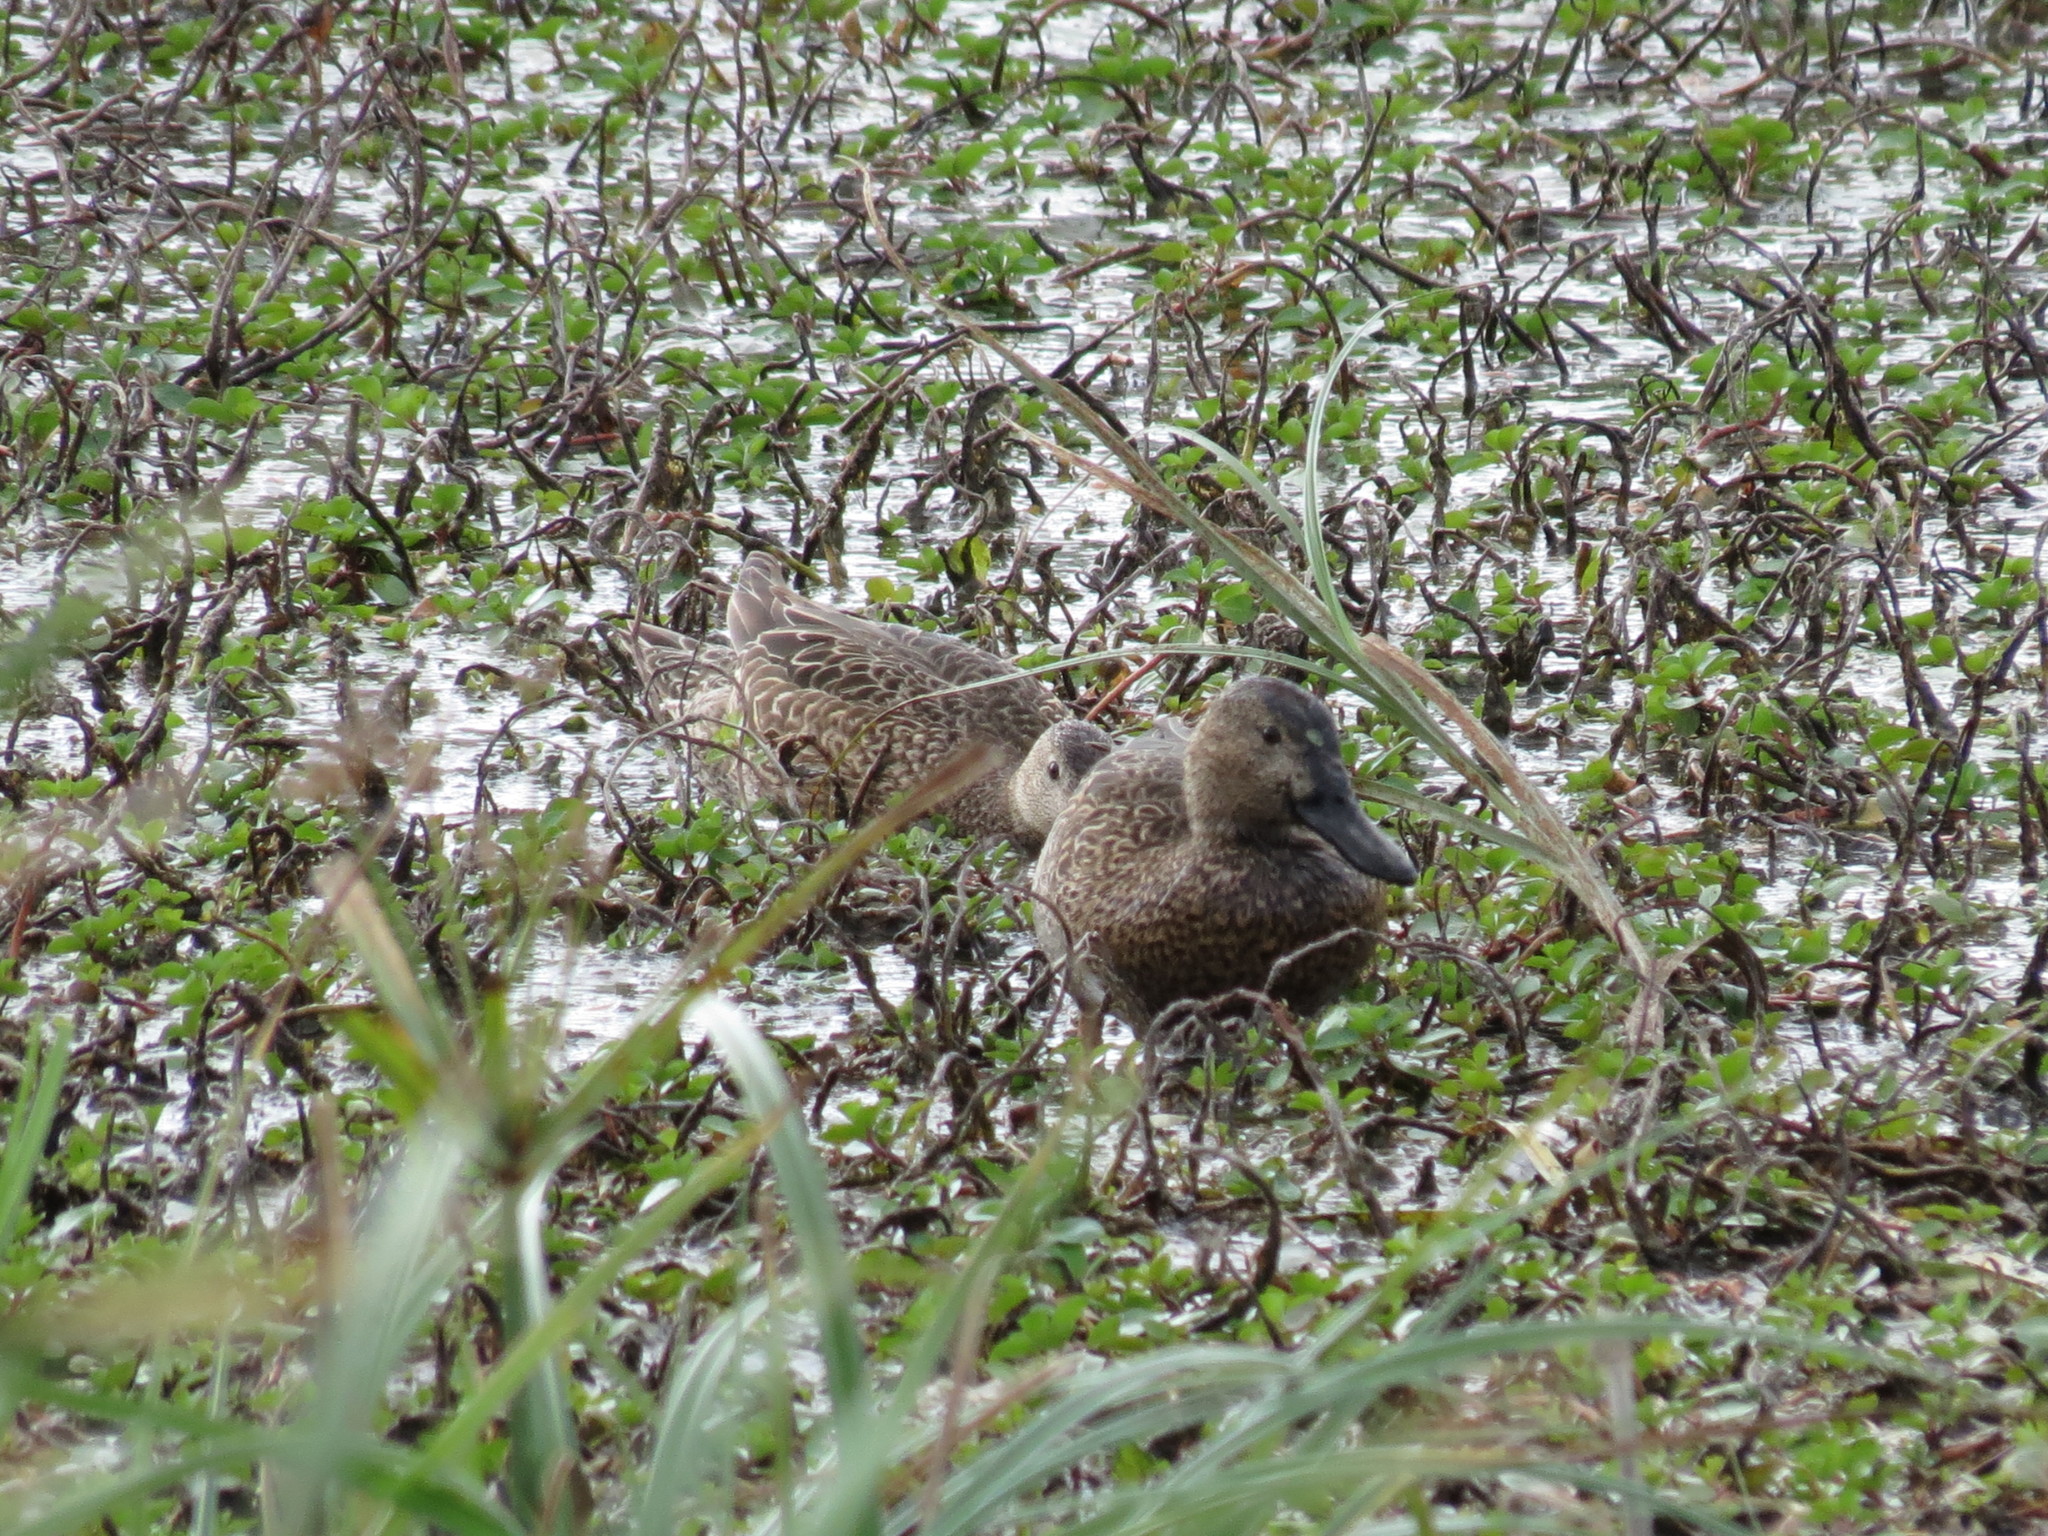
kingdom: Animalia
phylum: Chordata
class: Aves
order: Anseriformes
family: Anatidae
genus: Spatula
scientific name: Spatula cyanoptera
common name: Cinnamon teal
